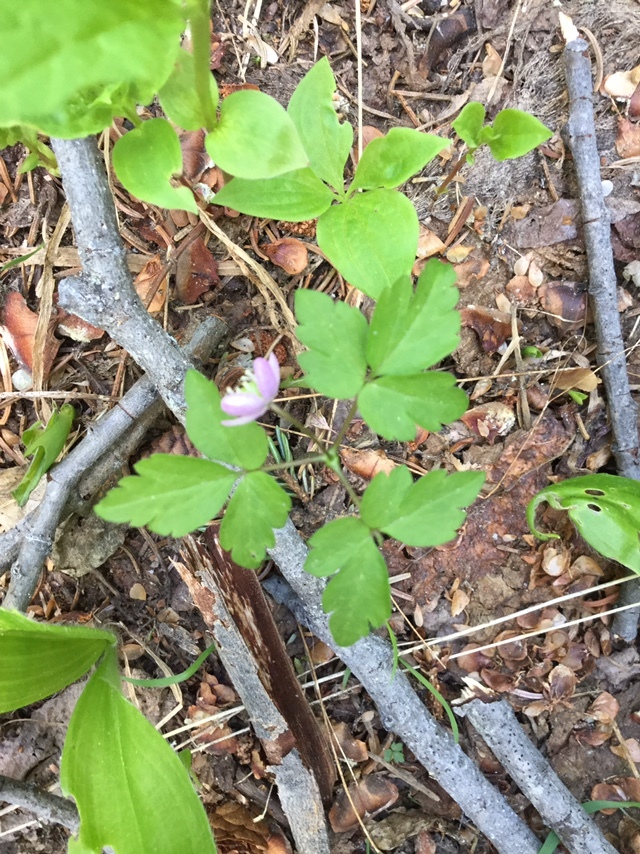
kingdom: Plantae
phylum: Tracheophyta
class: Magnoliopsida
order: Ranunculales
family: Ranunculaceae
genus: Anemone
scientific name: Anemone
